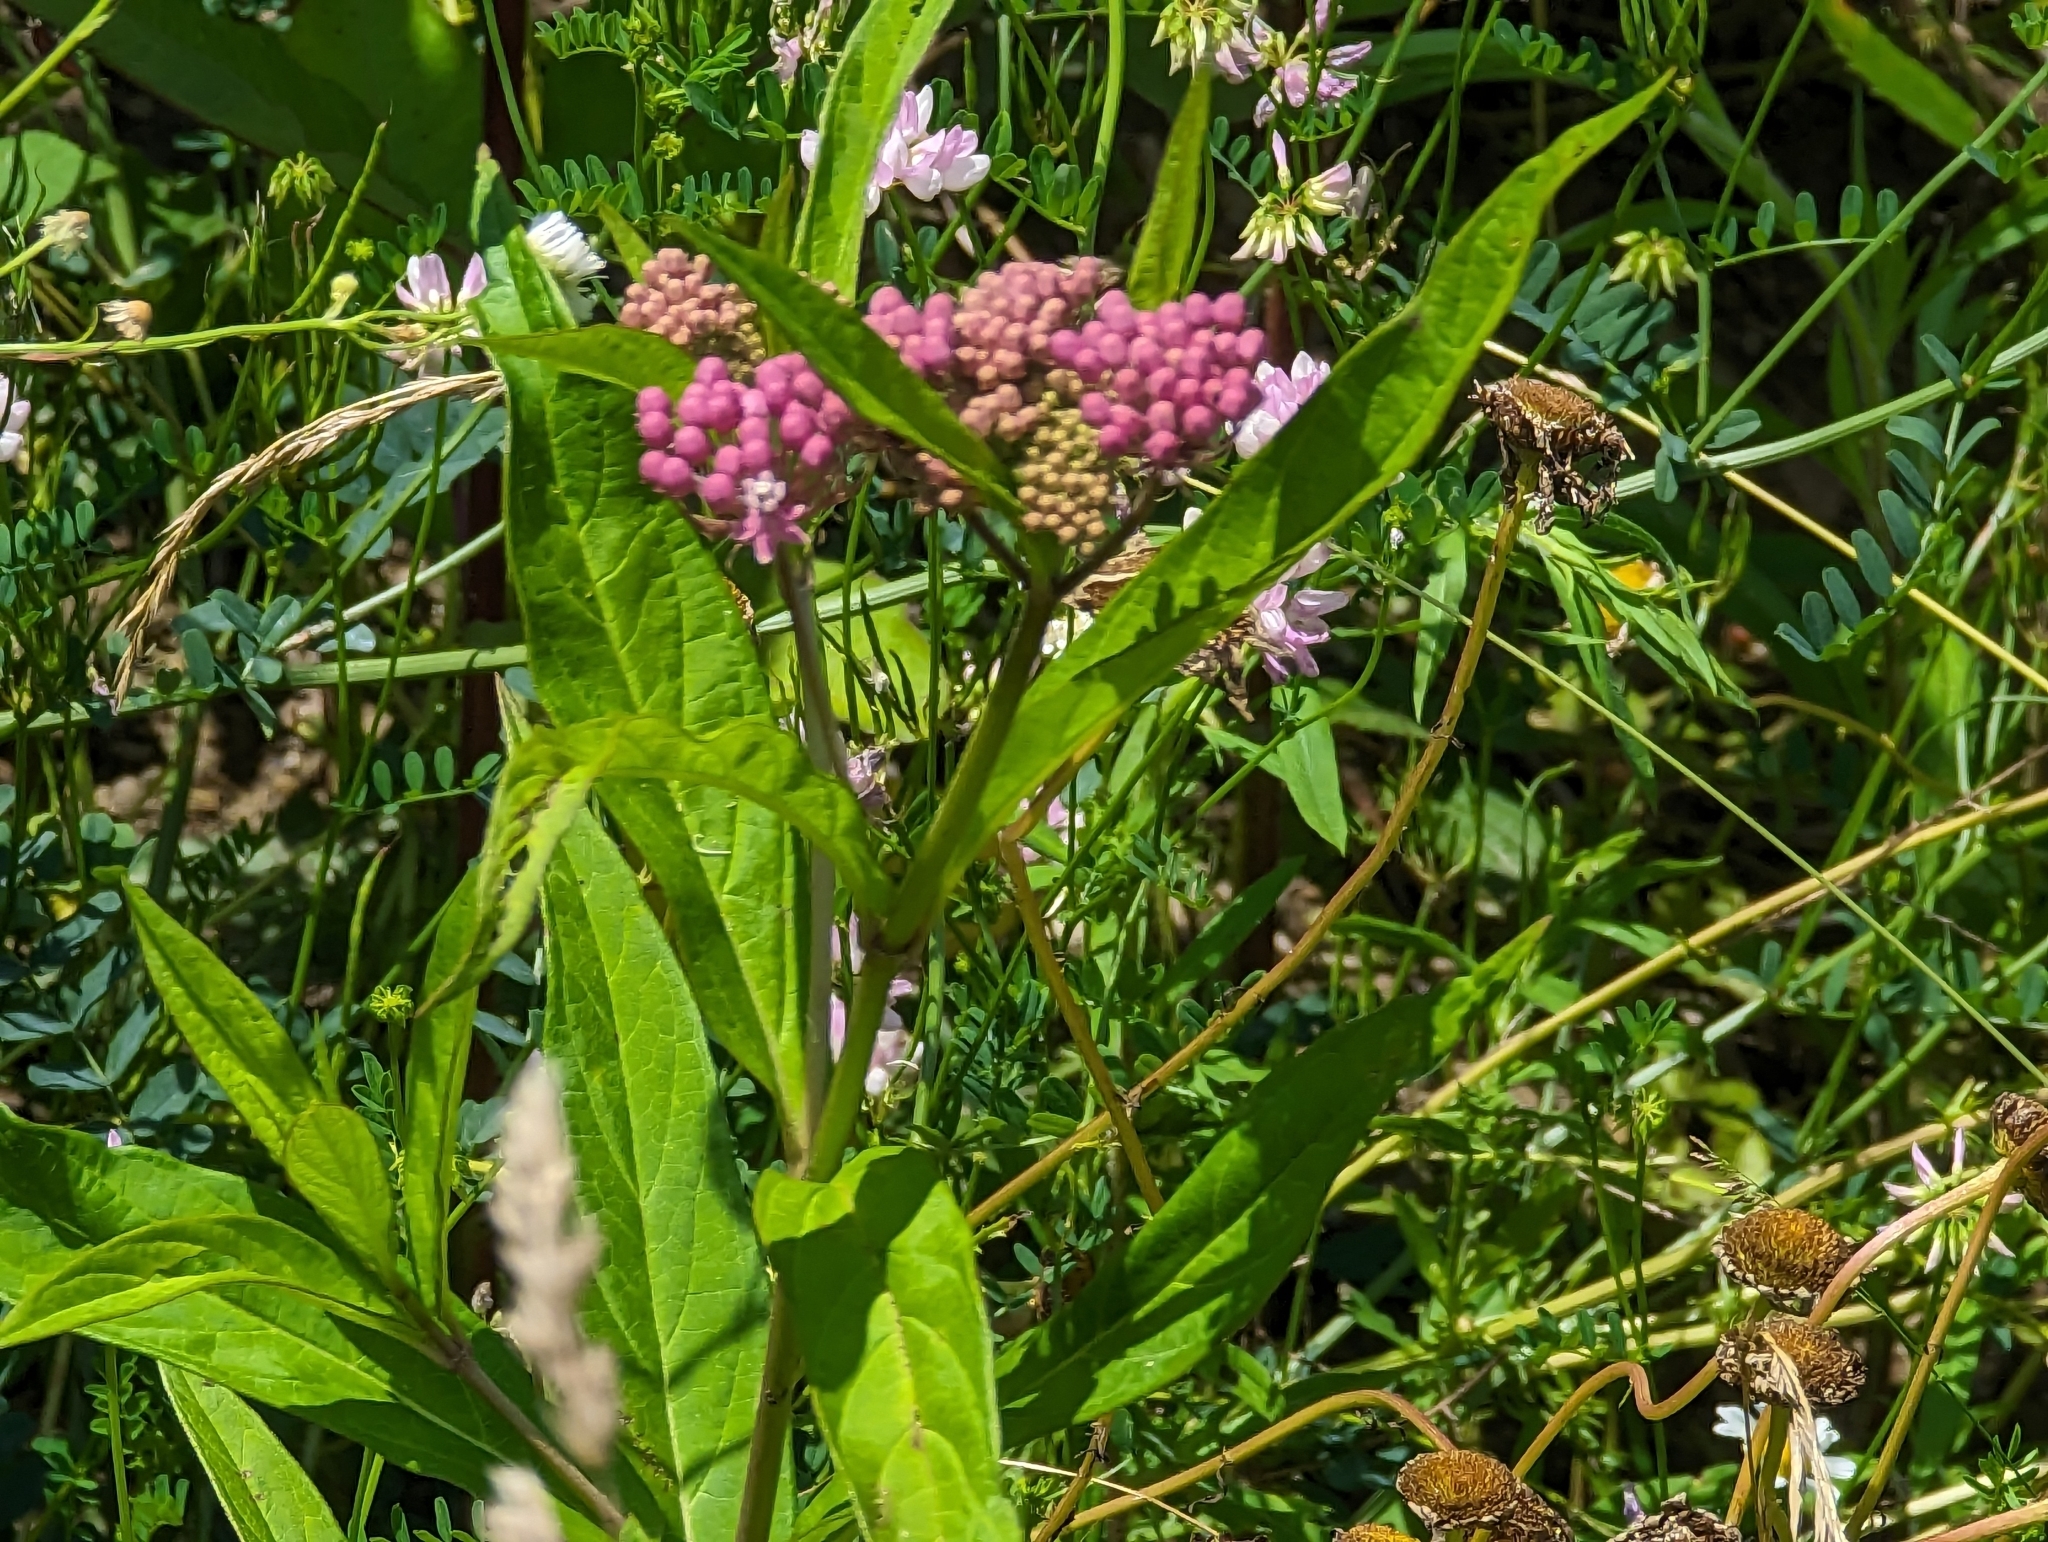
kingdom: Plantae
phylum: Tracheophyta
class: Magnoliopsida
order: Gentianales
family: Apocynaceae
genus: Asclepias
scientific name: Asclepias incarnata
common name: Swamp milkweed
